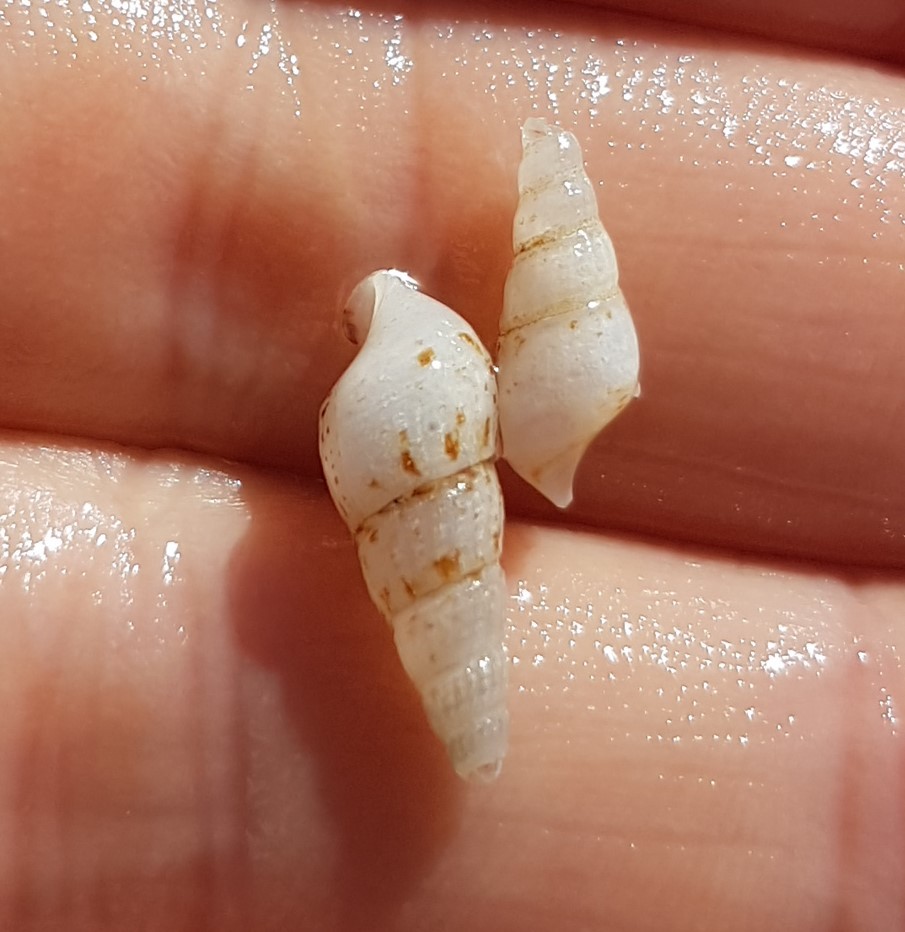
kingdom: Animalia
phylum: Mollusca
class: Gastropoda
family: Thiaridae
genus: Melanoides
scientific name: Melanoides tuberculata
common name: Red-rim melania
